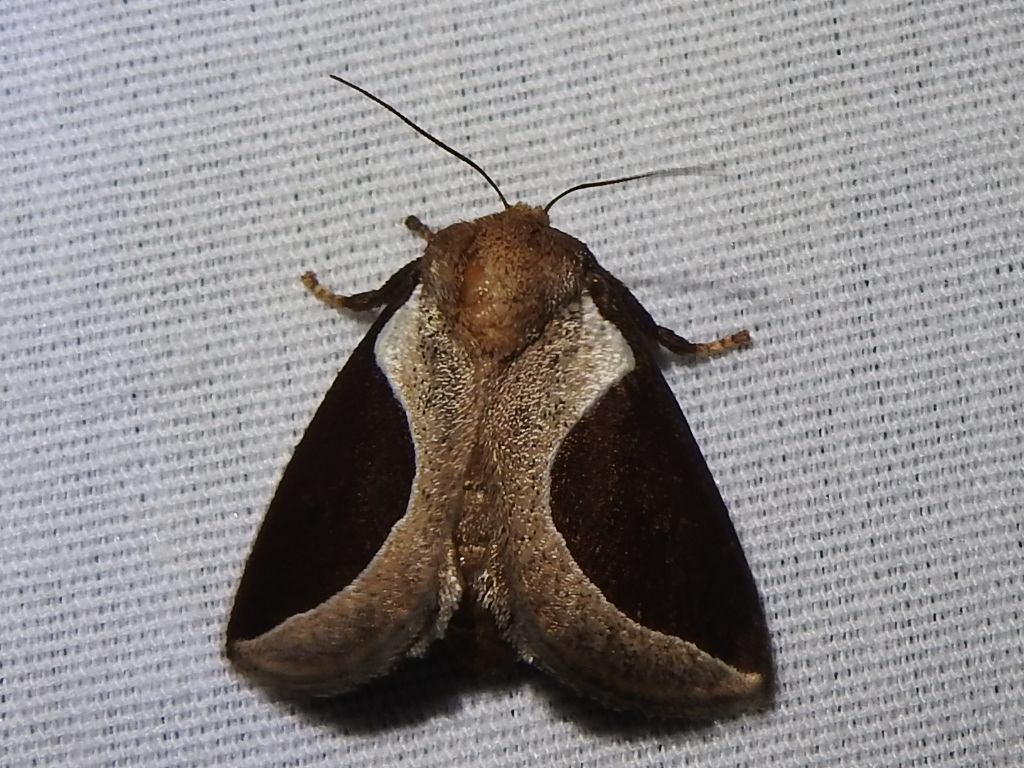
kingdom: Animalia
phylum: Arthropoda
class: Insecta
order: Lepidoptera
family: Limacodidae
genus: Prolimacodes
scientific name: Prolimacodes badia
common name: Skiff moth
